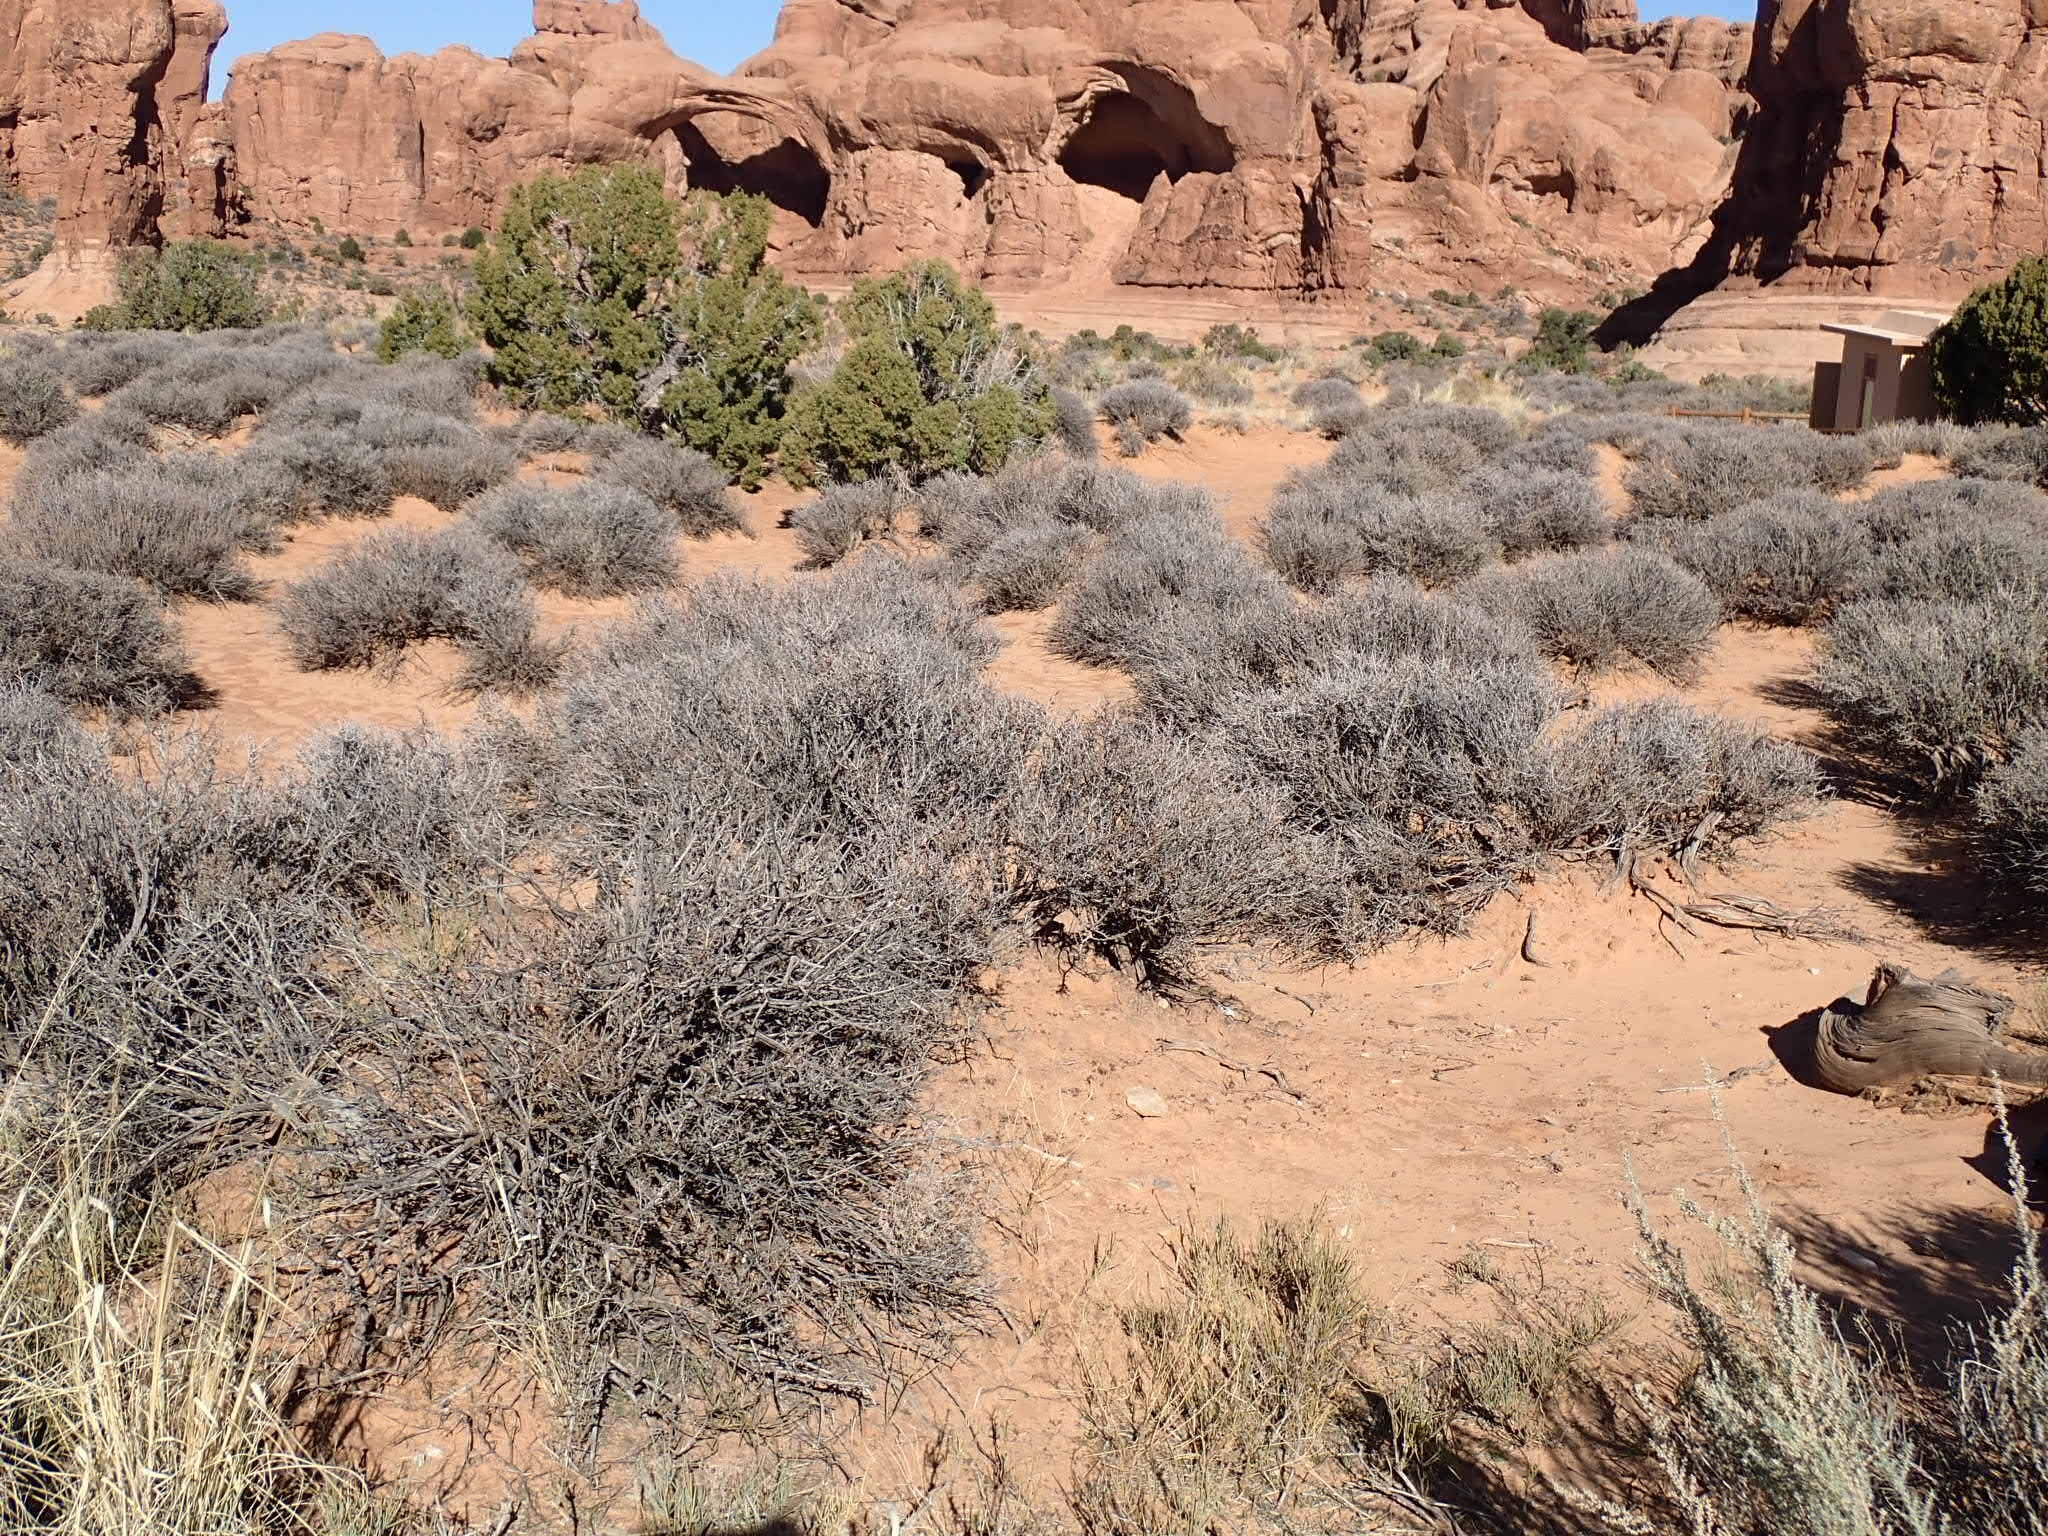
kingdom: Plantae
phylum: Tracheophyta
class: Magnoliopsida
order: Rosales
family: Rosaceae
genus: Coleogyne
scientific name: Coleogyne ramosissima
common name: Blackbrush
